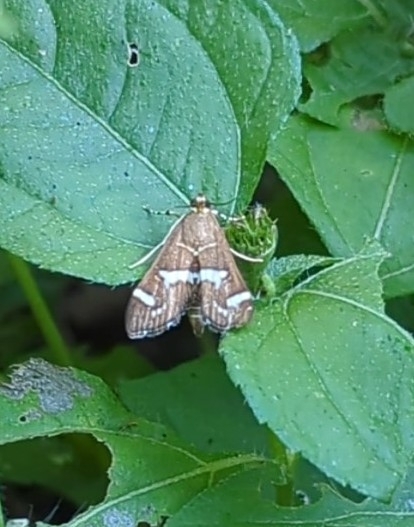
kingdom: Animalia
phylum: Arthropoda
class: Insecta
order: Lepidoptera
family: Crambidae
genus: Spoladea
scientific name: Spoladea recurvalis
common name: Beet webworm moth
